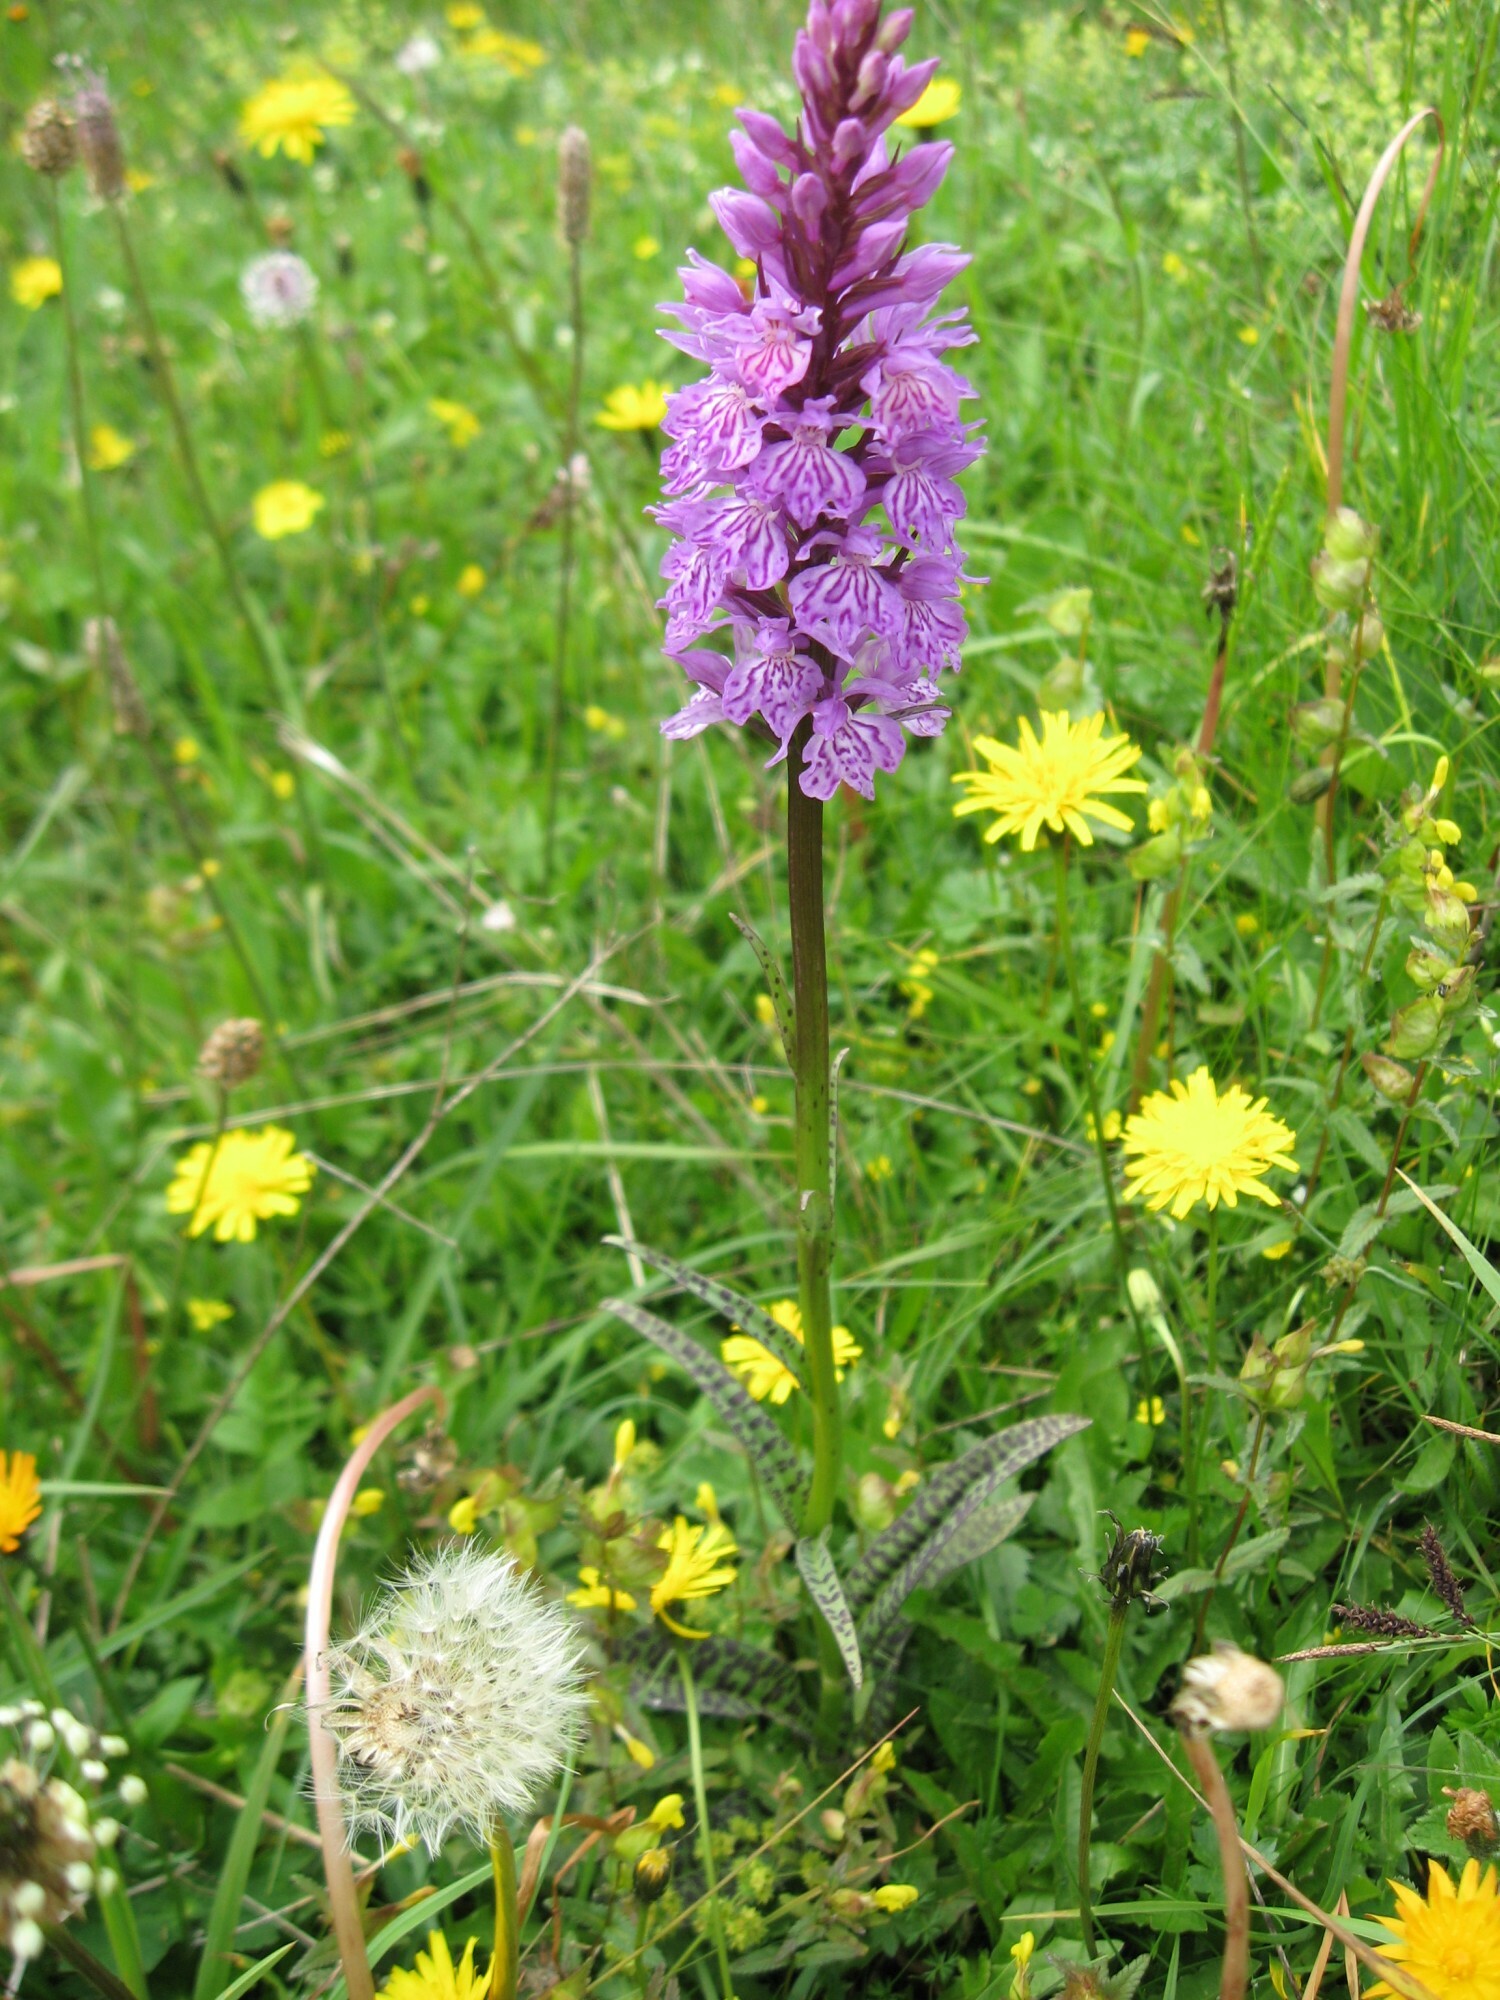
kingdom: Plantae
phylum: Tracheophyta
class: Liliopsida
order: Asparagales
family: Orchidaceae
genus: Dactylorhiza
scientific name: Dactylorhiza maculata
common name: Heath spotted-orchid
